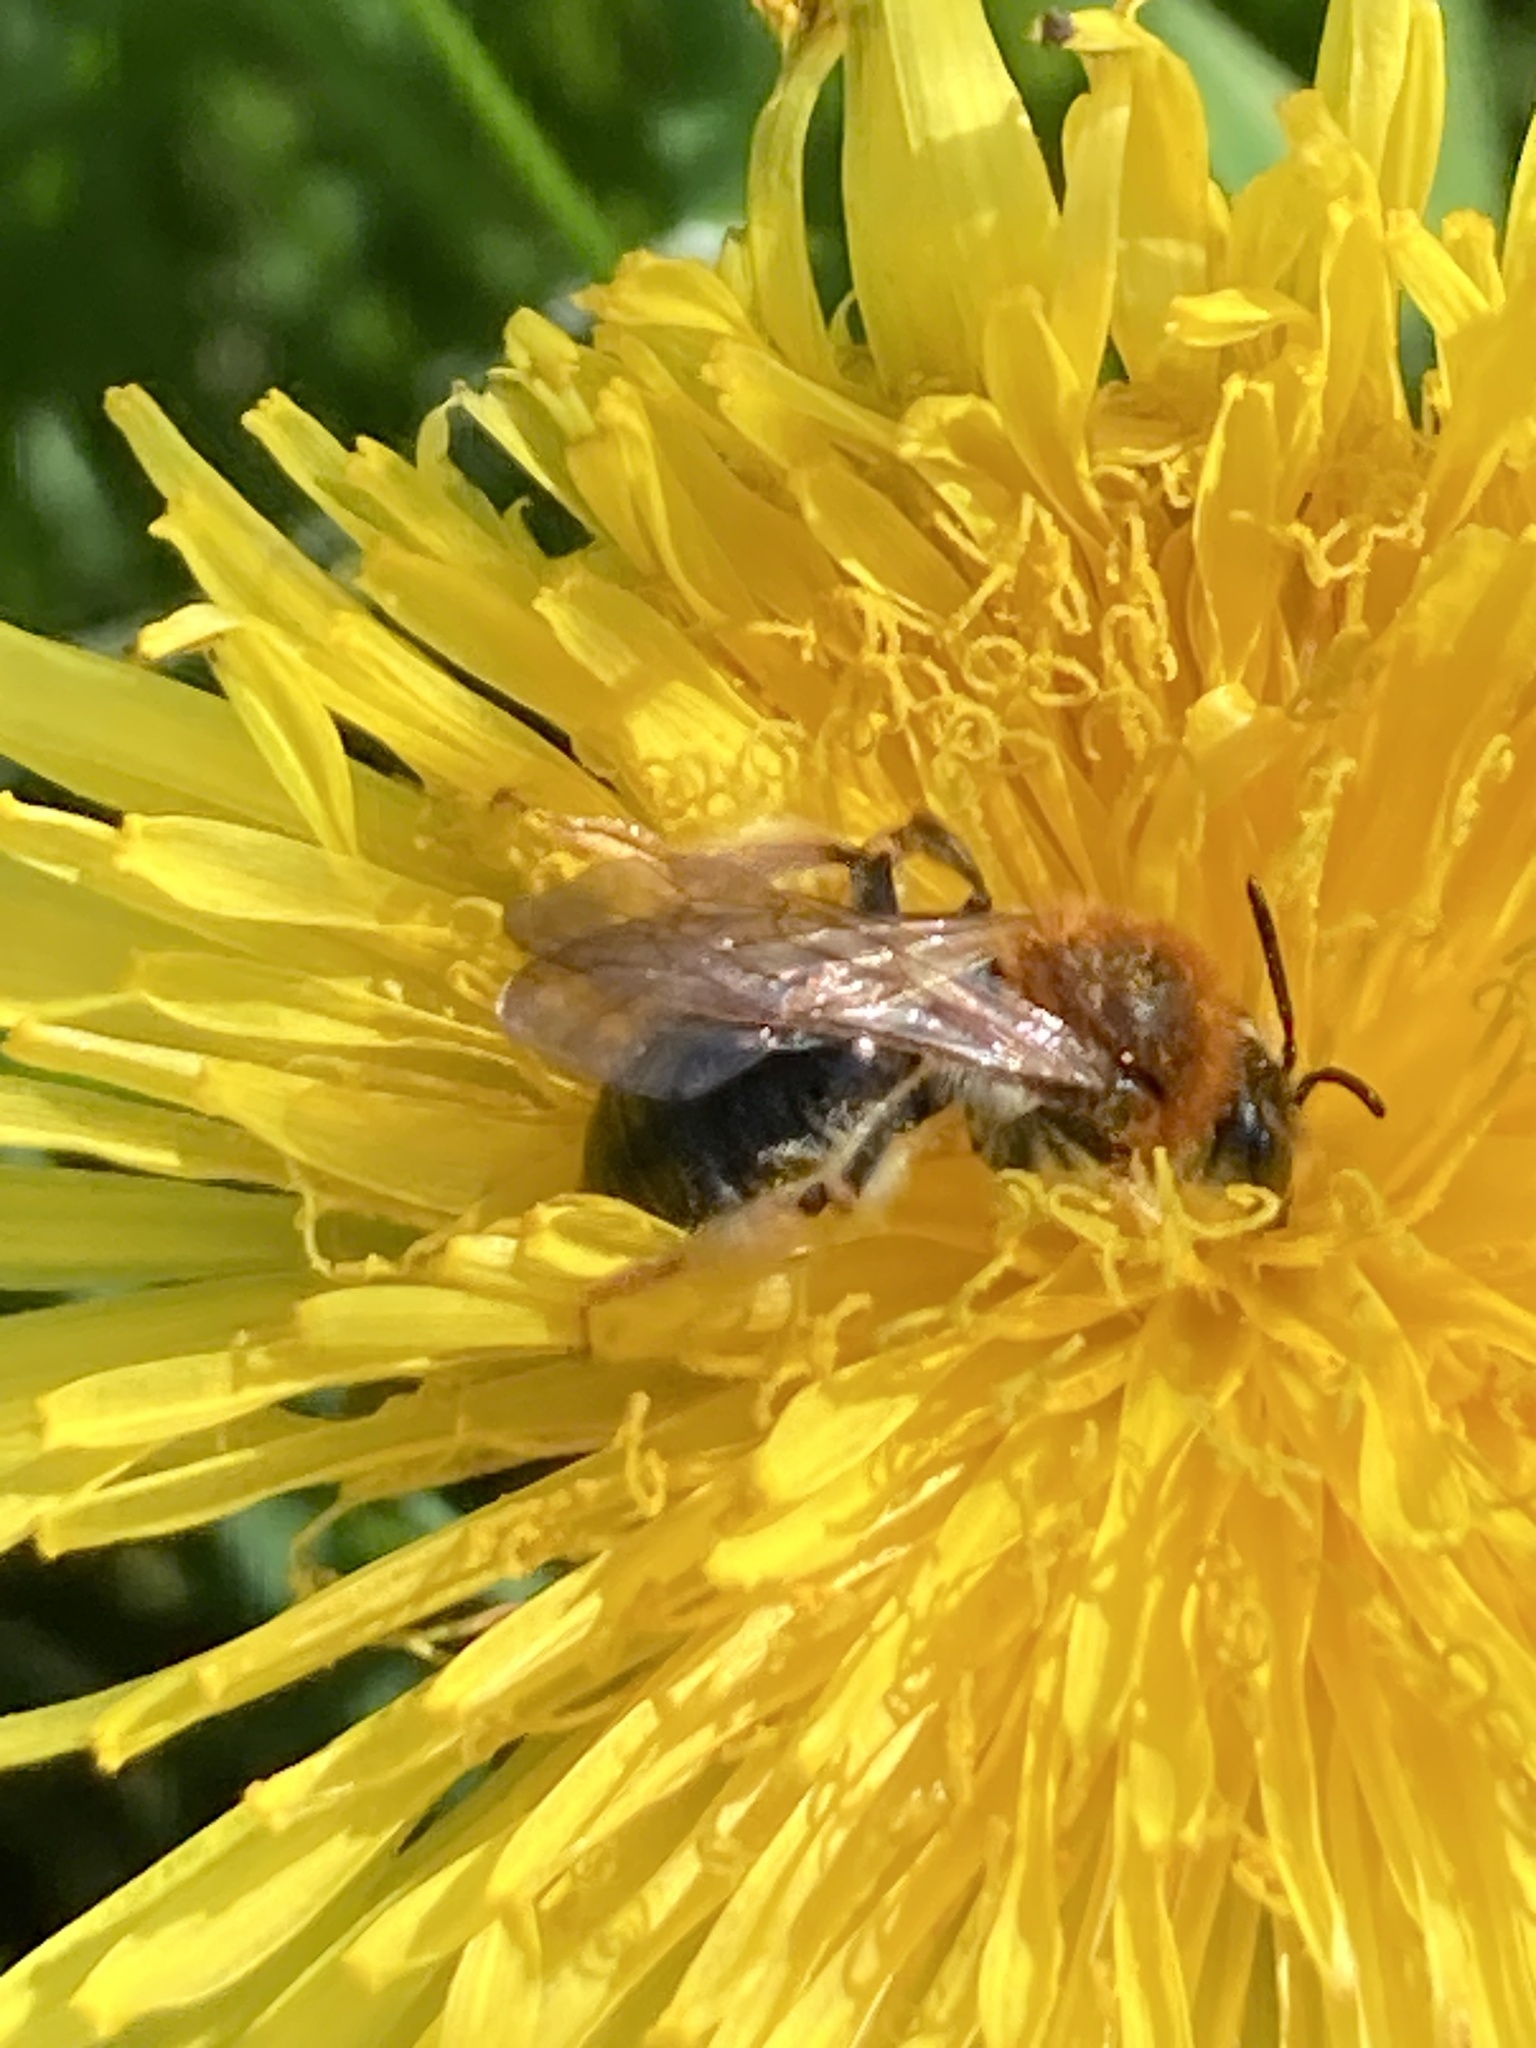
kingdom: Animalia
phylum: Arthropoda
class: Insecta
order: Hymenoptera
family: Andrenidae
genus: Andrena
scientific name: Andrena haemorrhoa
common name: Early mining bee
